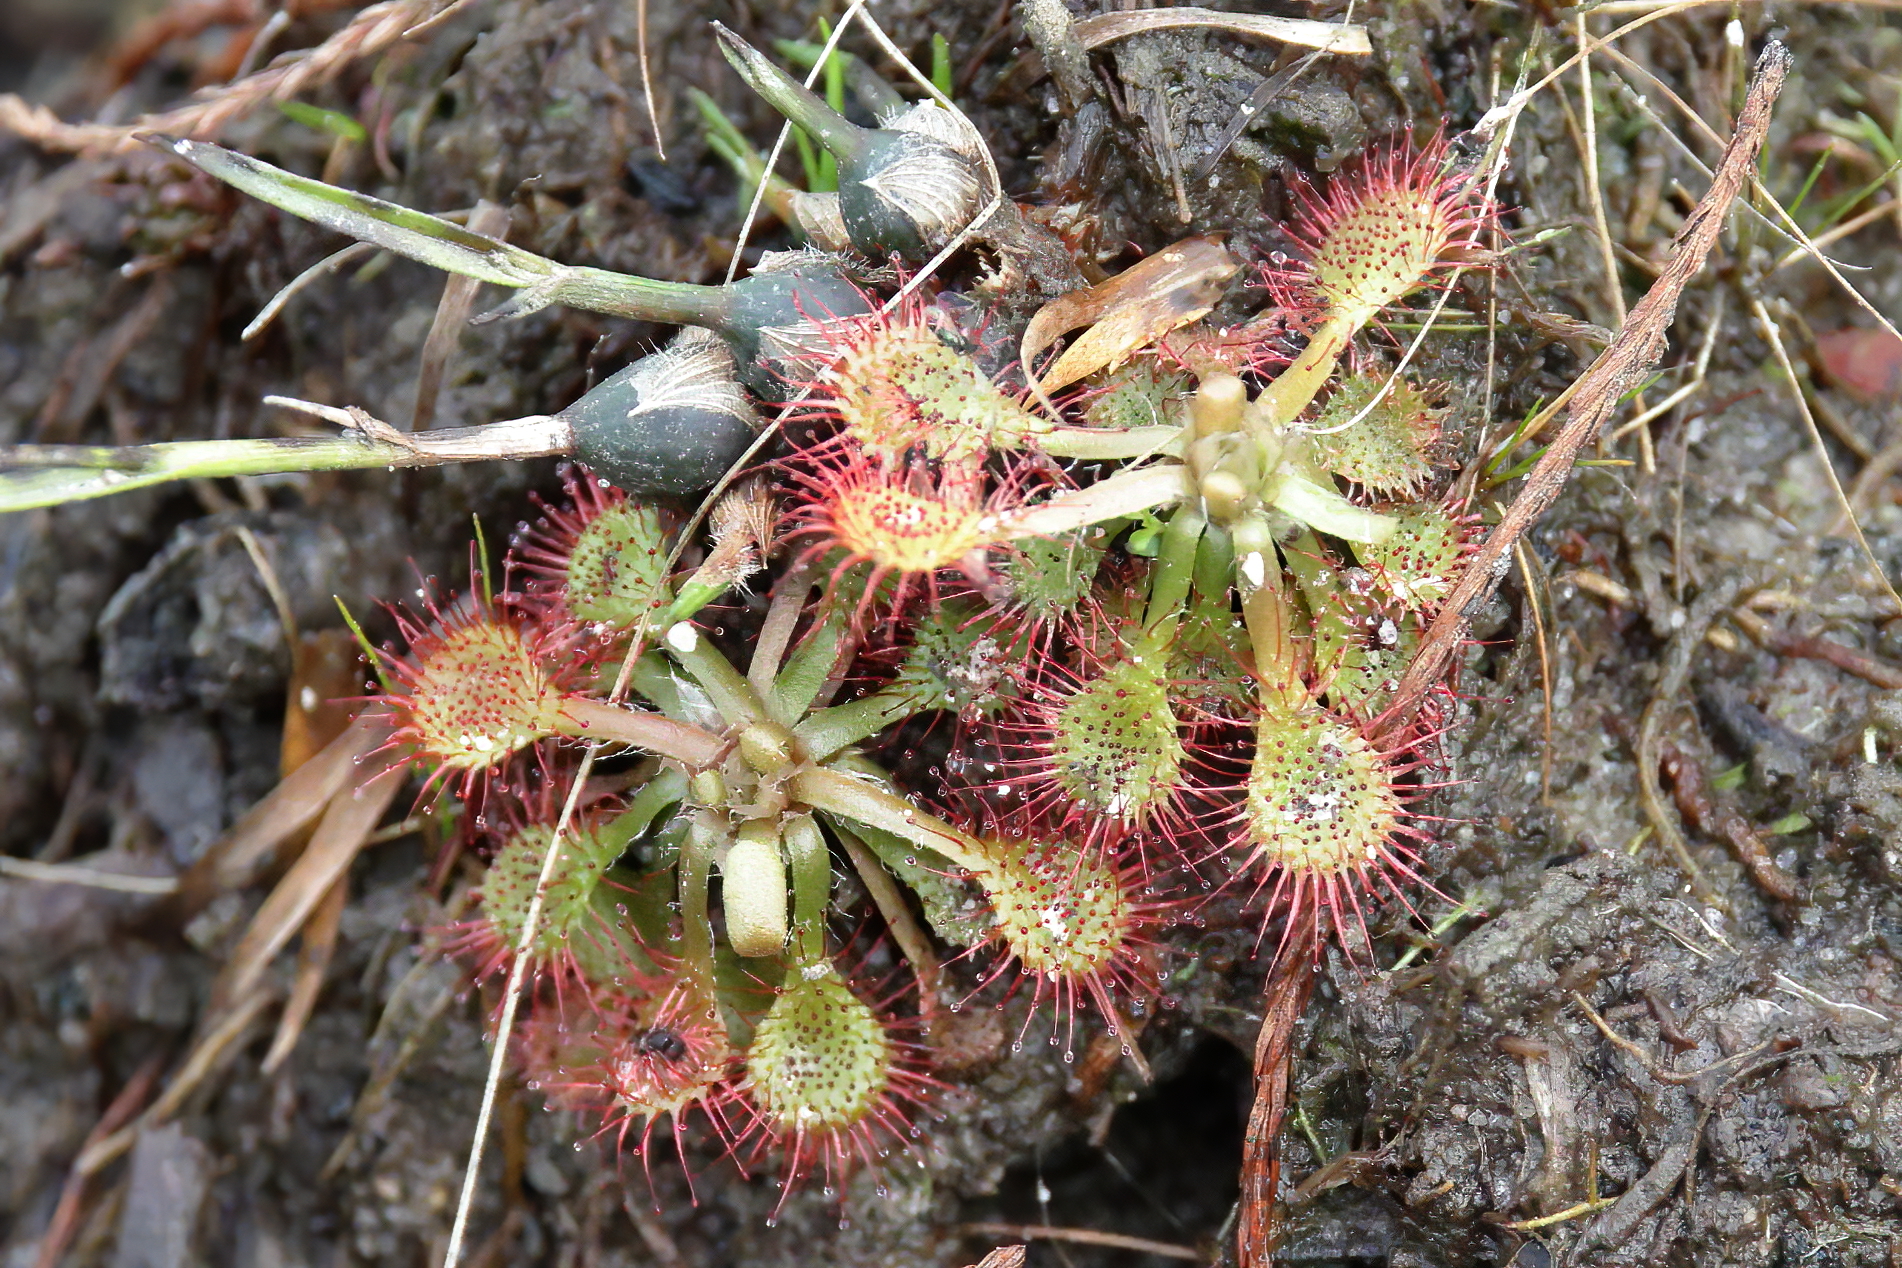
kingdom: Plantae
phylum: Tracheophyta
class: Magnoliopsida
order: Caryophyllales
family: Droseraceae
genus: Drosera
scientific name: Drosera capillaris
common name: Pink sundew
